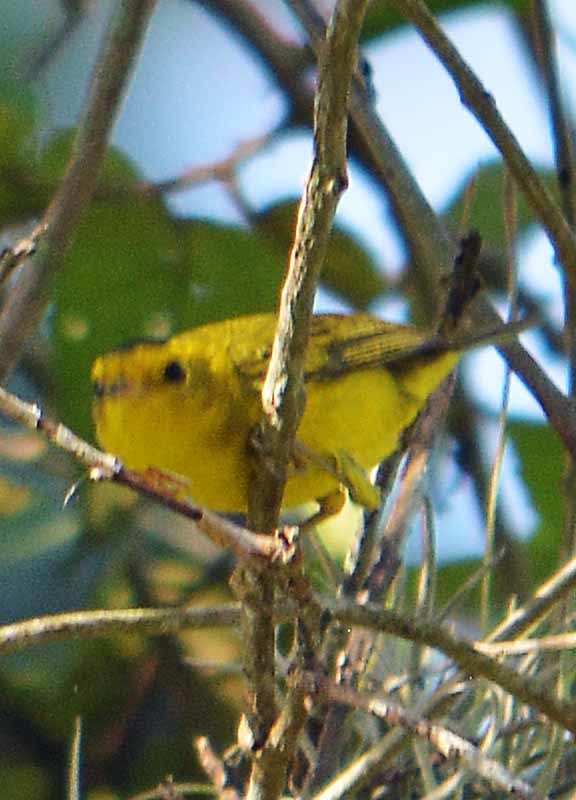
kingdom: Animalia
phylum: Chordata
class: Aves
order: Passeriformes
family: Parulidae
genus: Cardellina
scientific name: Cardellina pusilla
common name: Wilson's warbler
